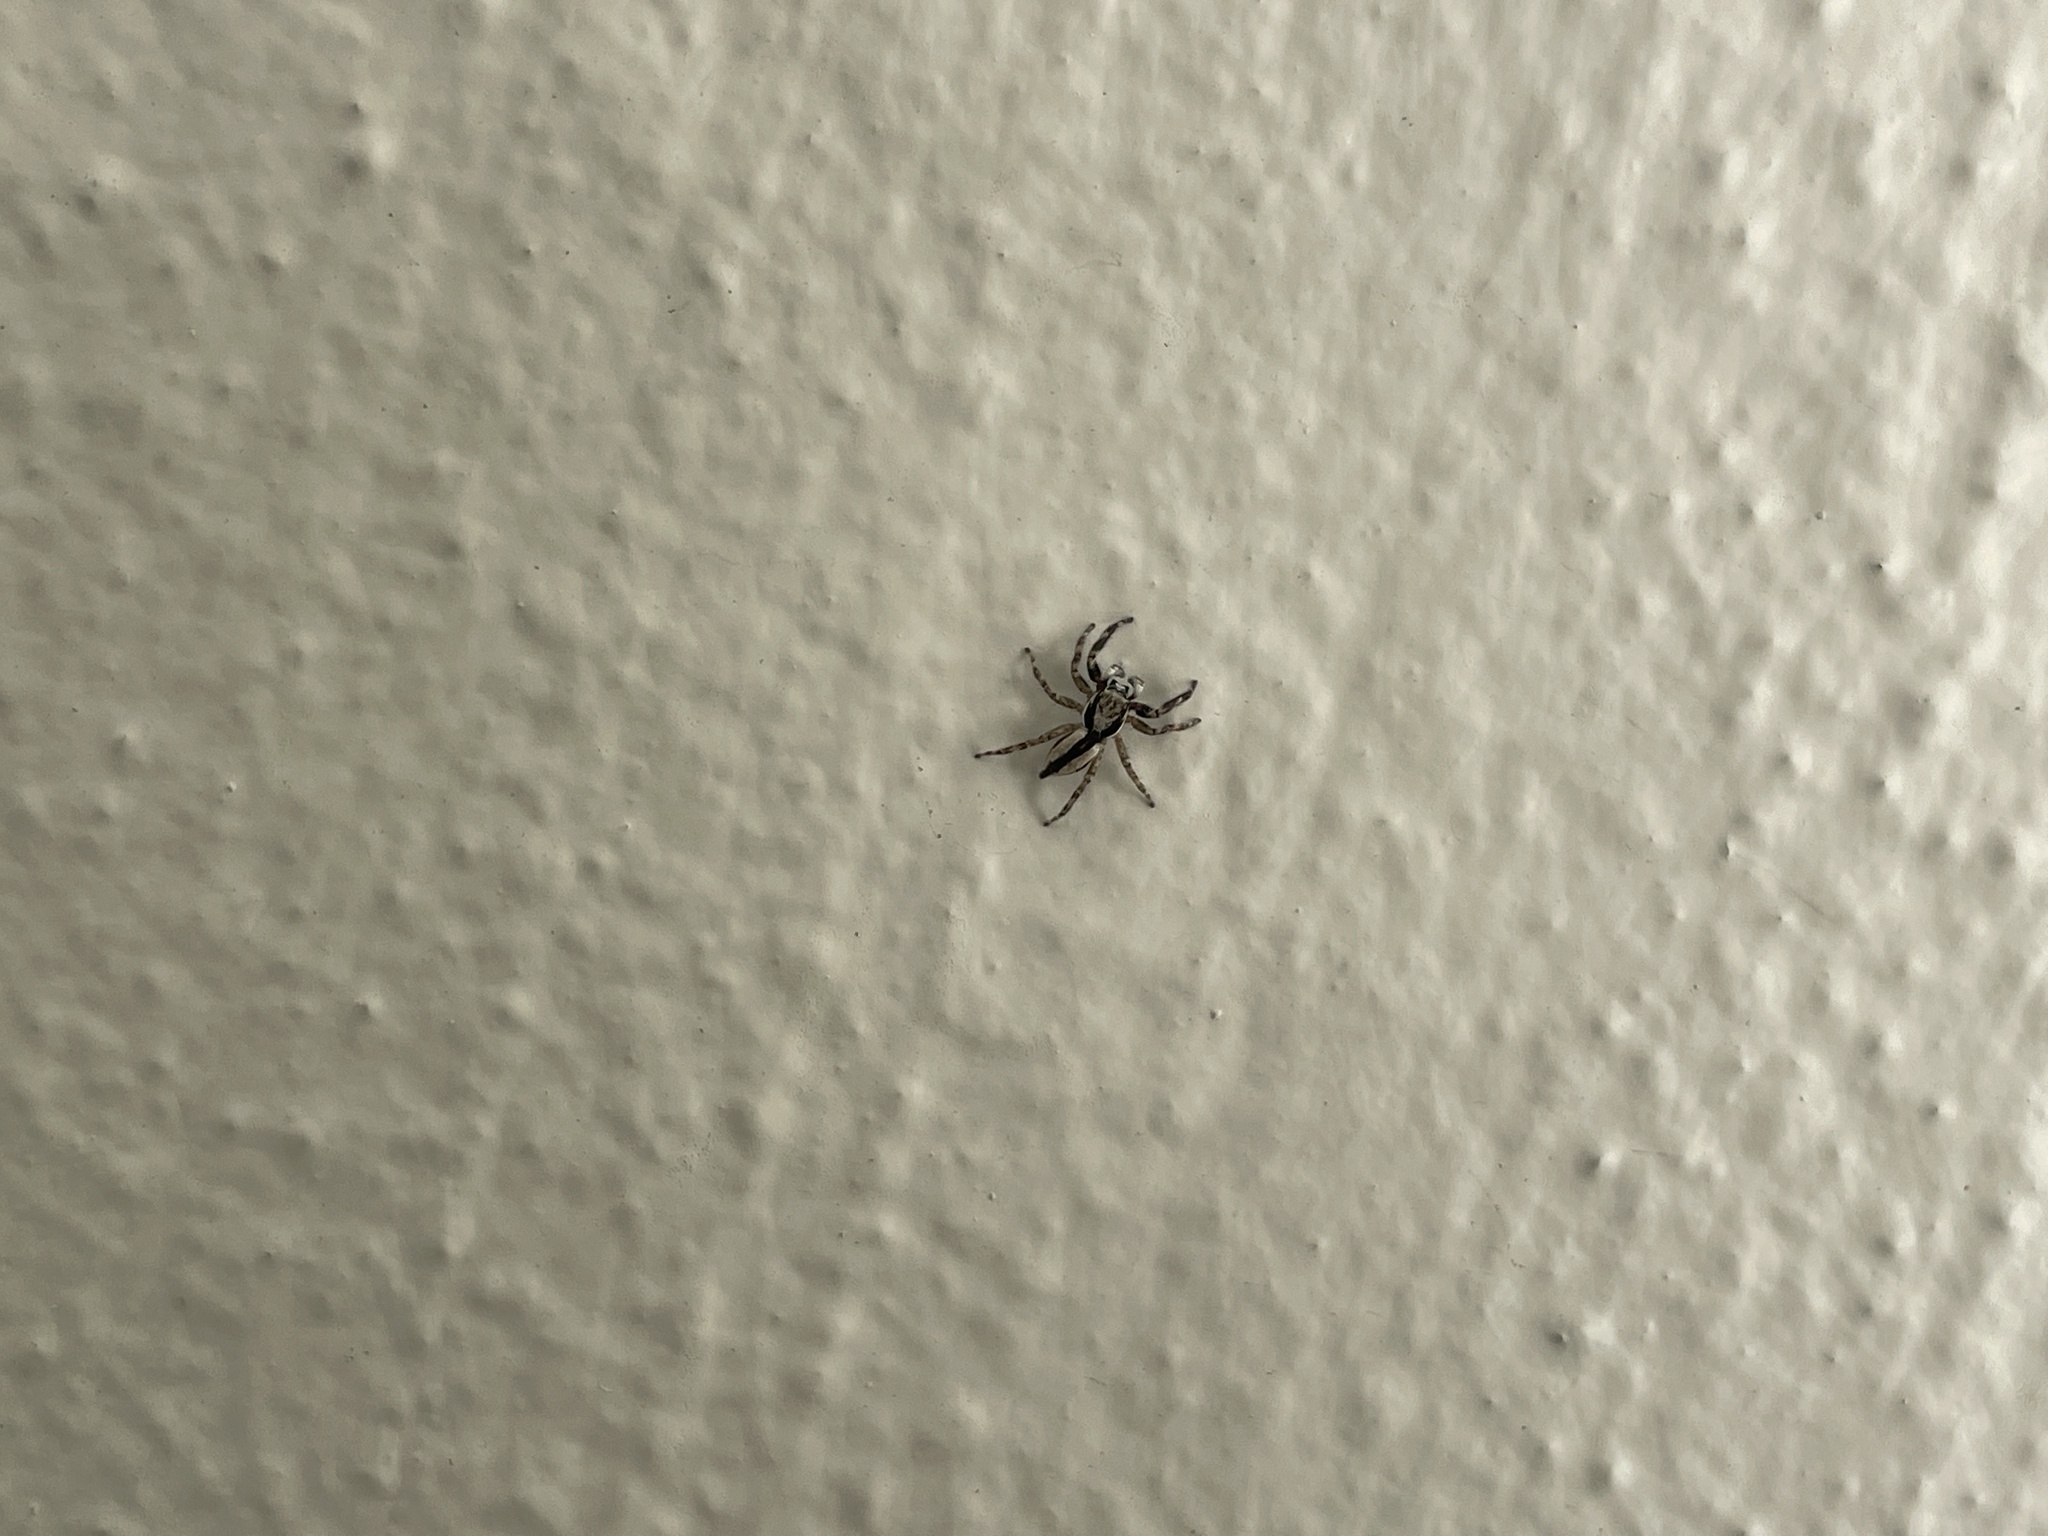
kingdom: Animalia
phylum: Arthropoda
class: Arachnida
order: Araneae
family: Salticidae
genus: Menemerus
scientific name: Menemerus bivittatus
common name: Gray wall jumper
